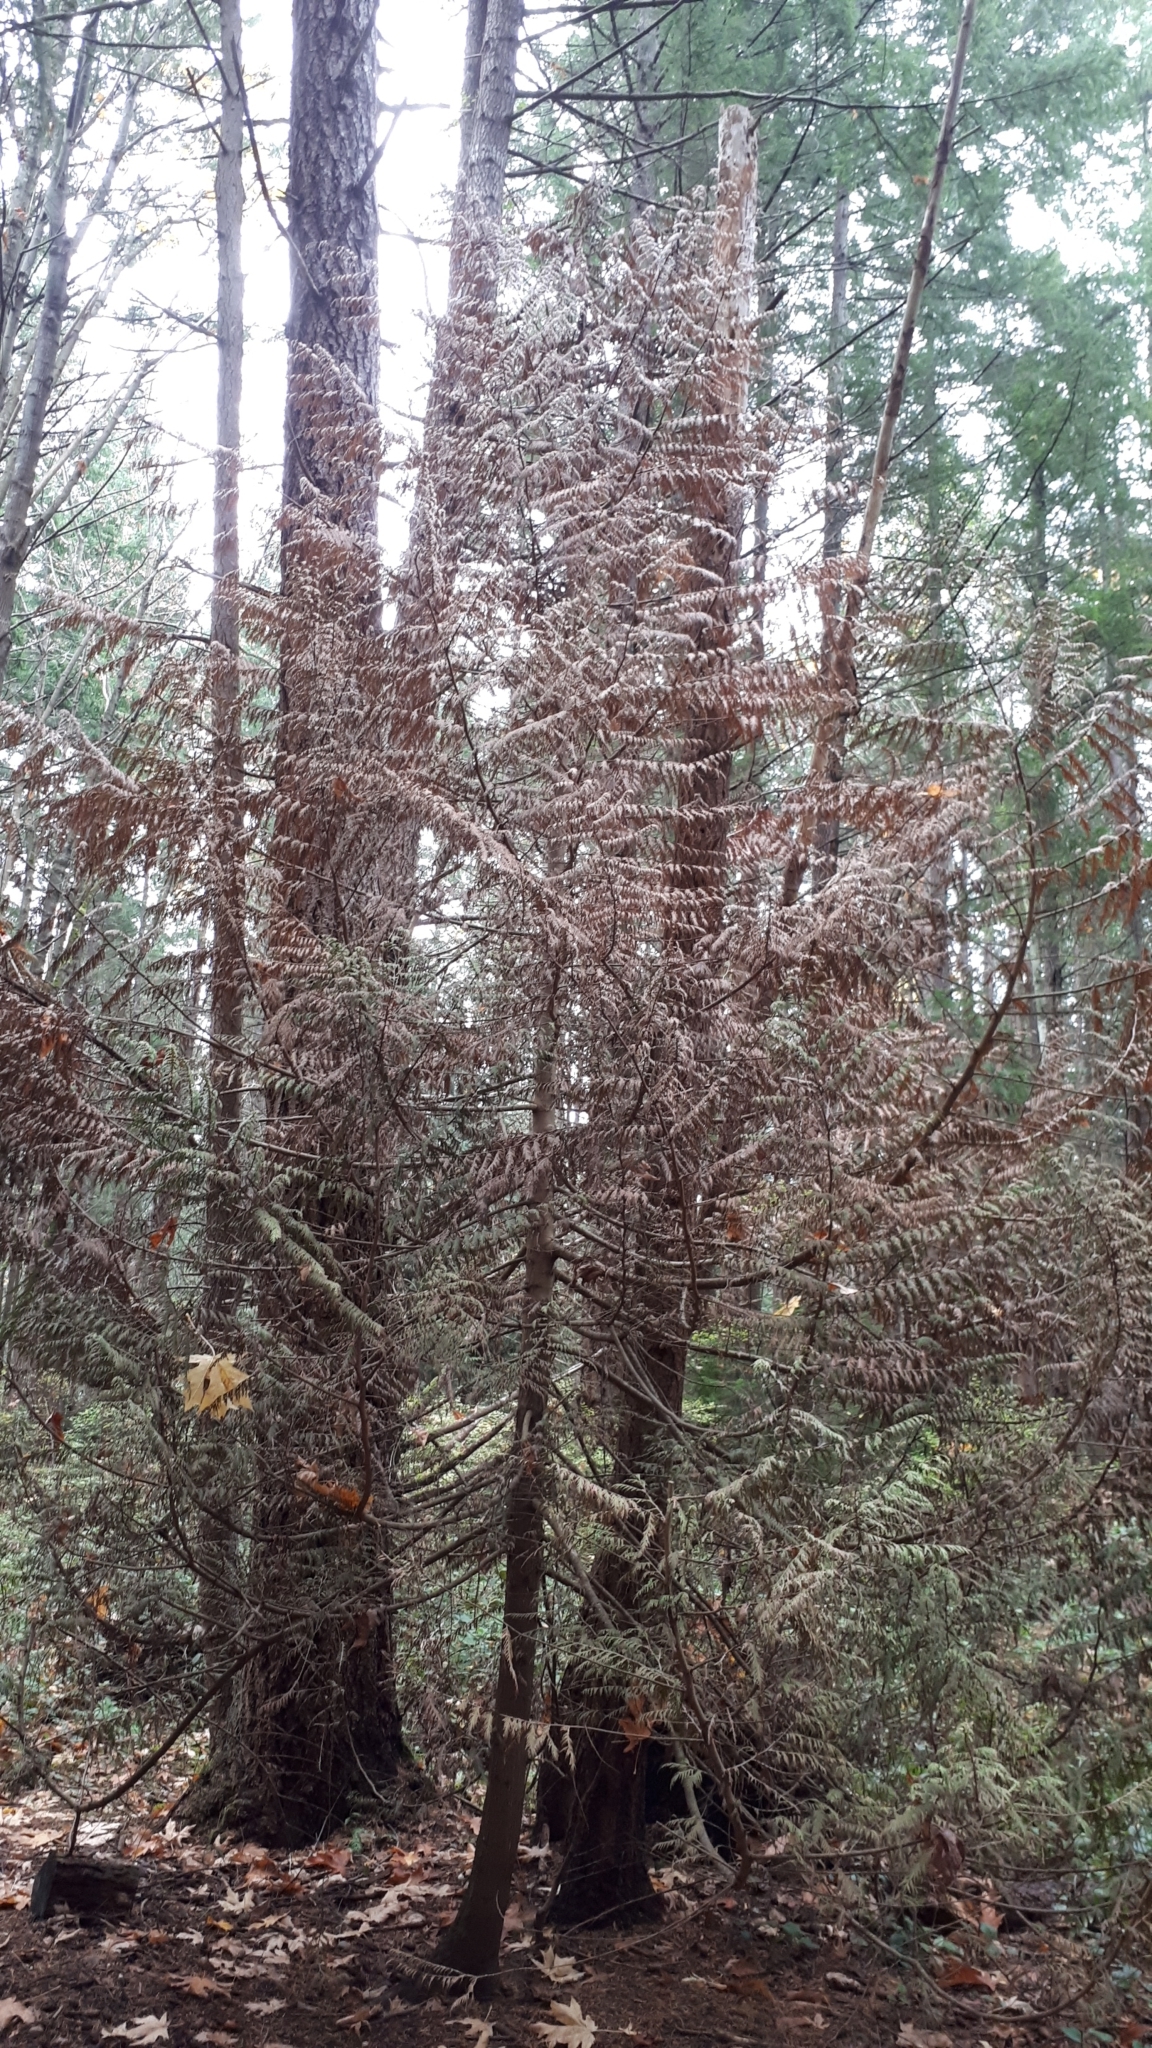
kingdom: Plantae
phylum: Tracheophyta
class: Pinopsida
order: Pinales
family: Cupressaceae
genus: Thuja
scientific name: Thuja plicata
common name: Western red-cedar
